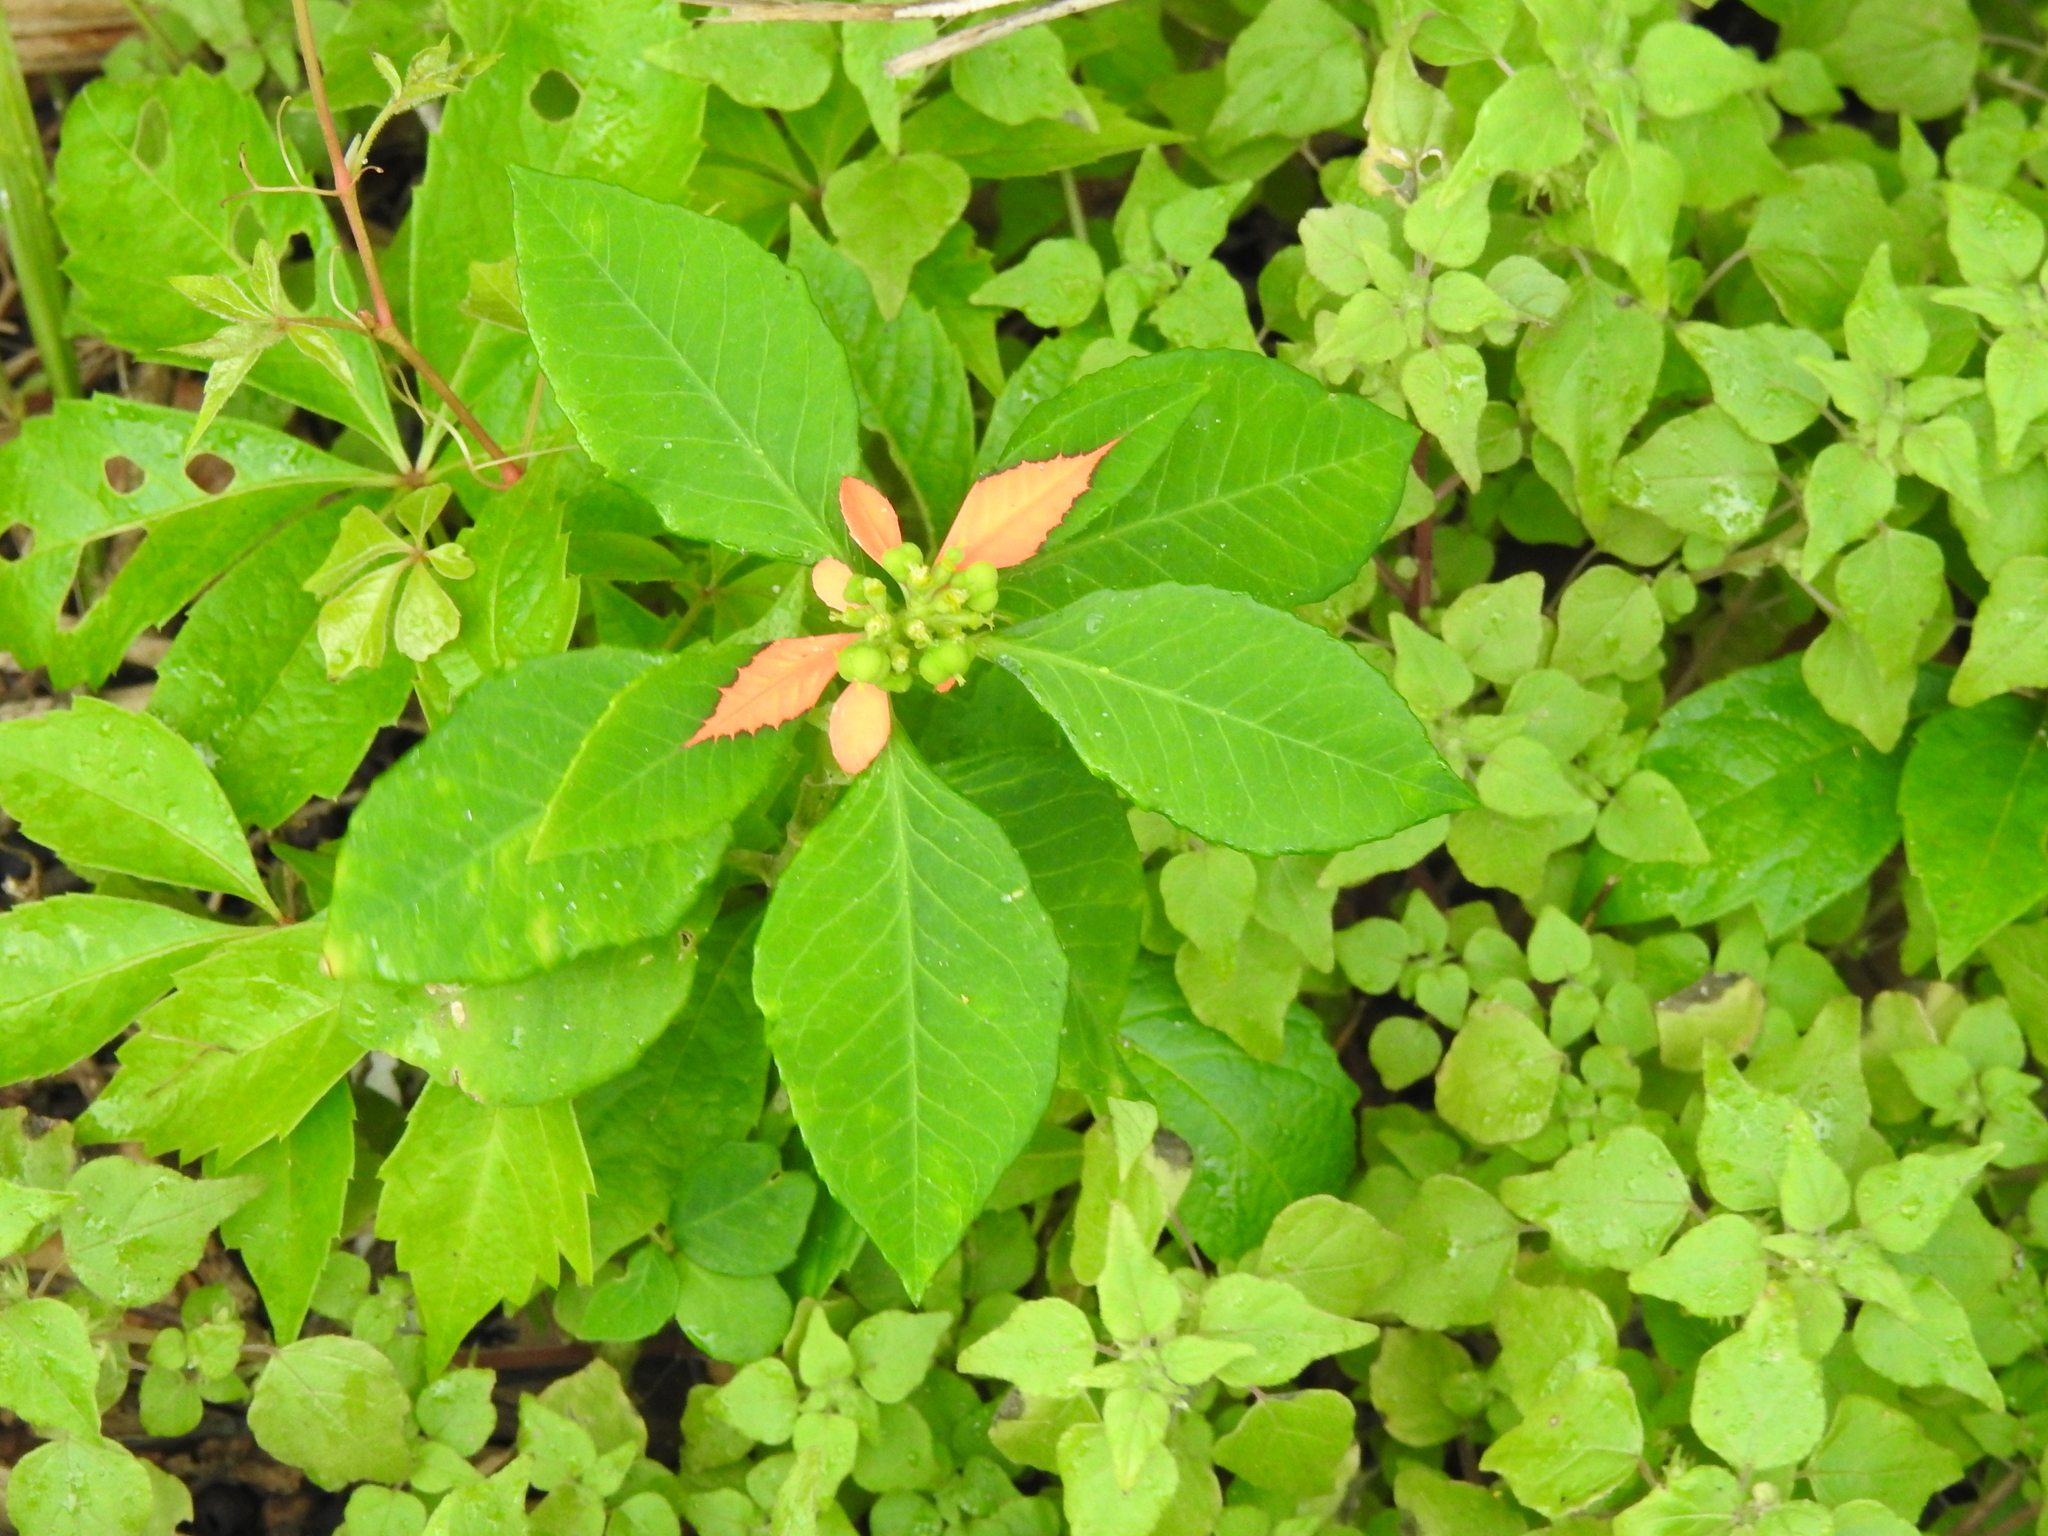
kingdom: Plantae
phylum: Tracheophyta
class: Magnoliopsida
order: Malpighiales
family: Euphorbiaceae
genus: Euphorbia
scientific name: Euphorbia heterophylla
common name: Mexican fireplant
